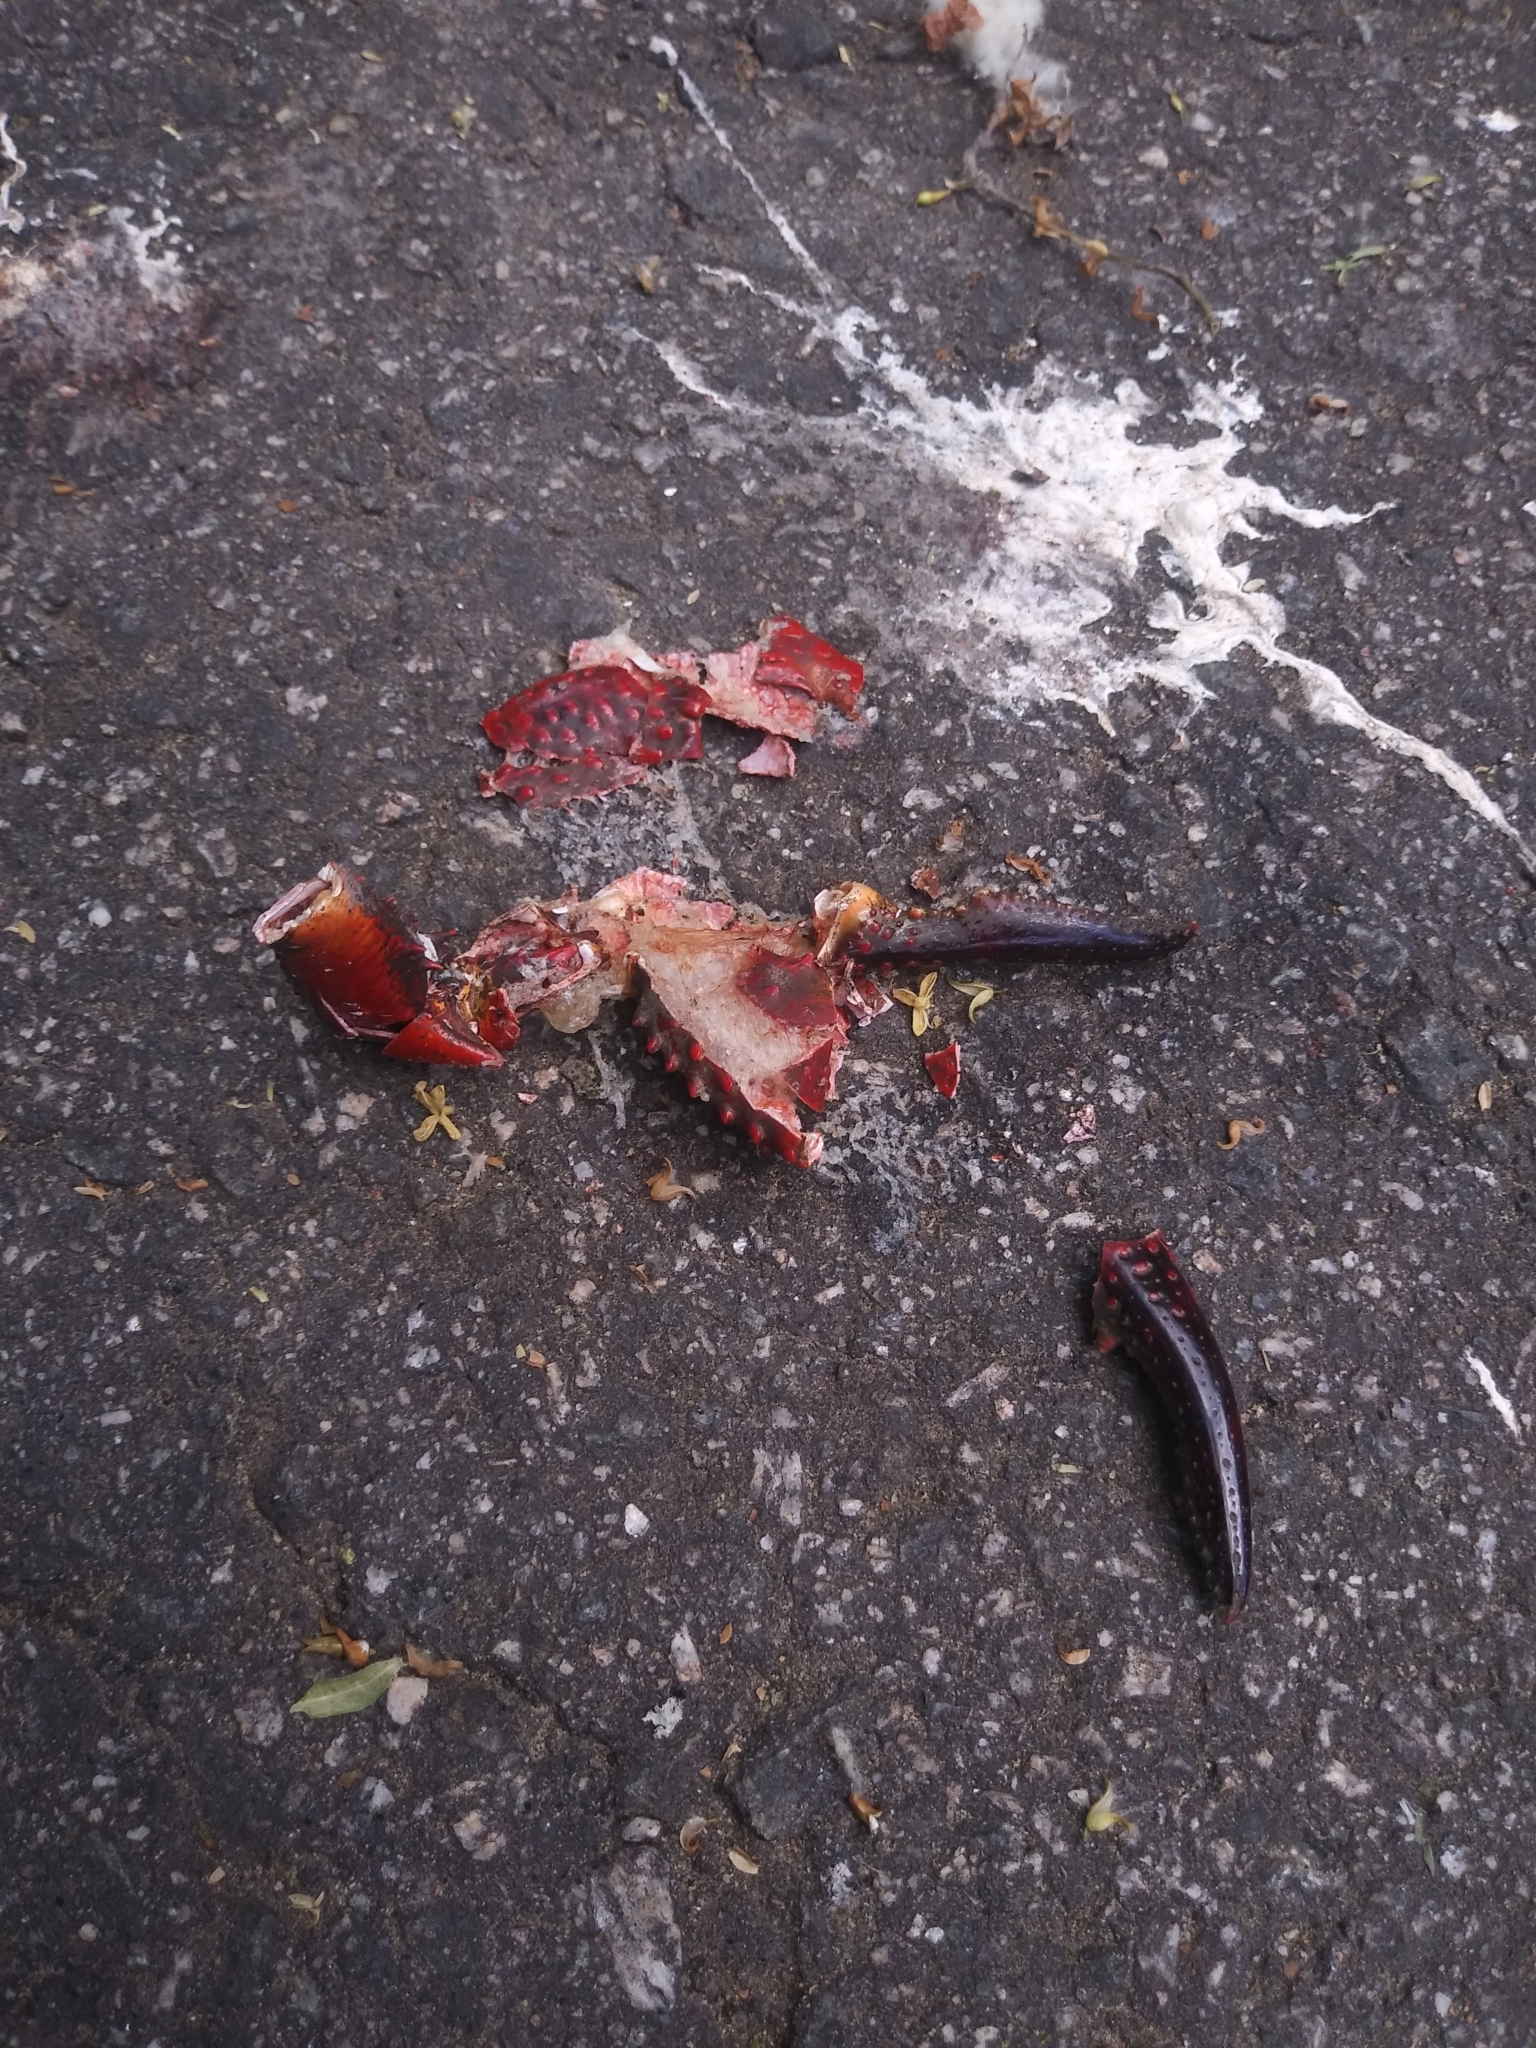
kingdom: Animalia
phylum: Arthropoda
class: Malacostraca
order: Decapoda
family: Cambaridae
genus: Procambarus
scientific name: Procambarus clarkii
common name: Red swamp crayfish
